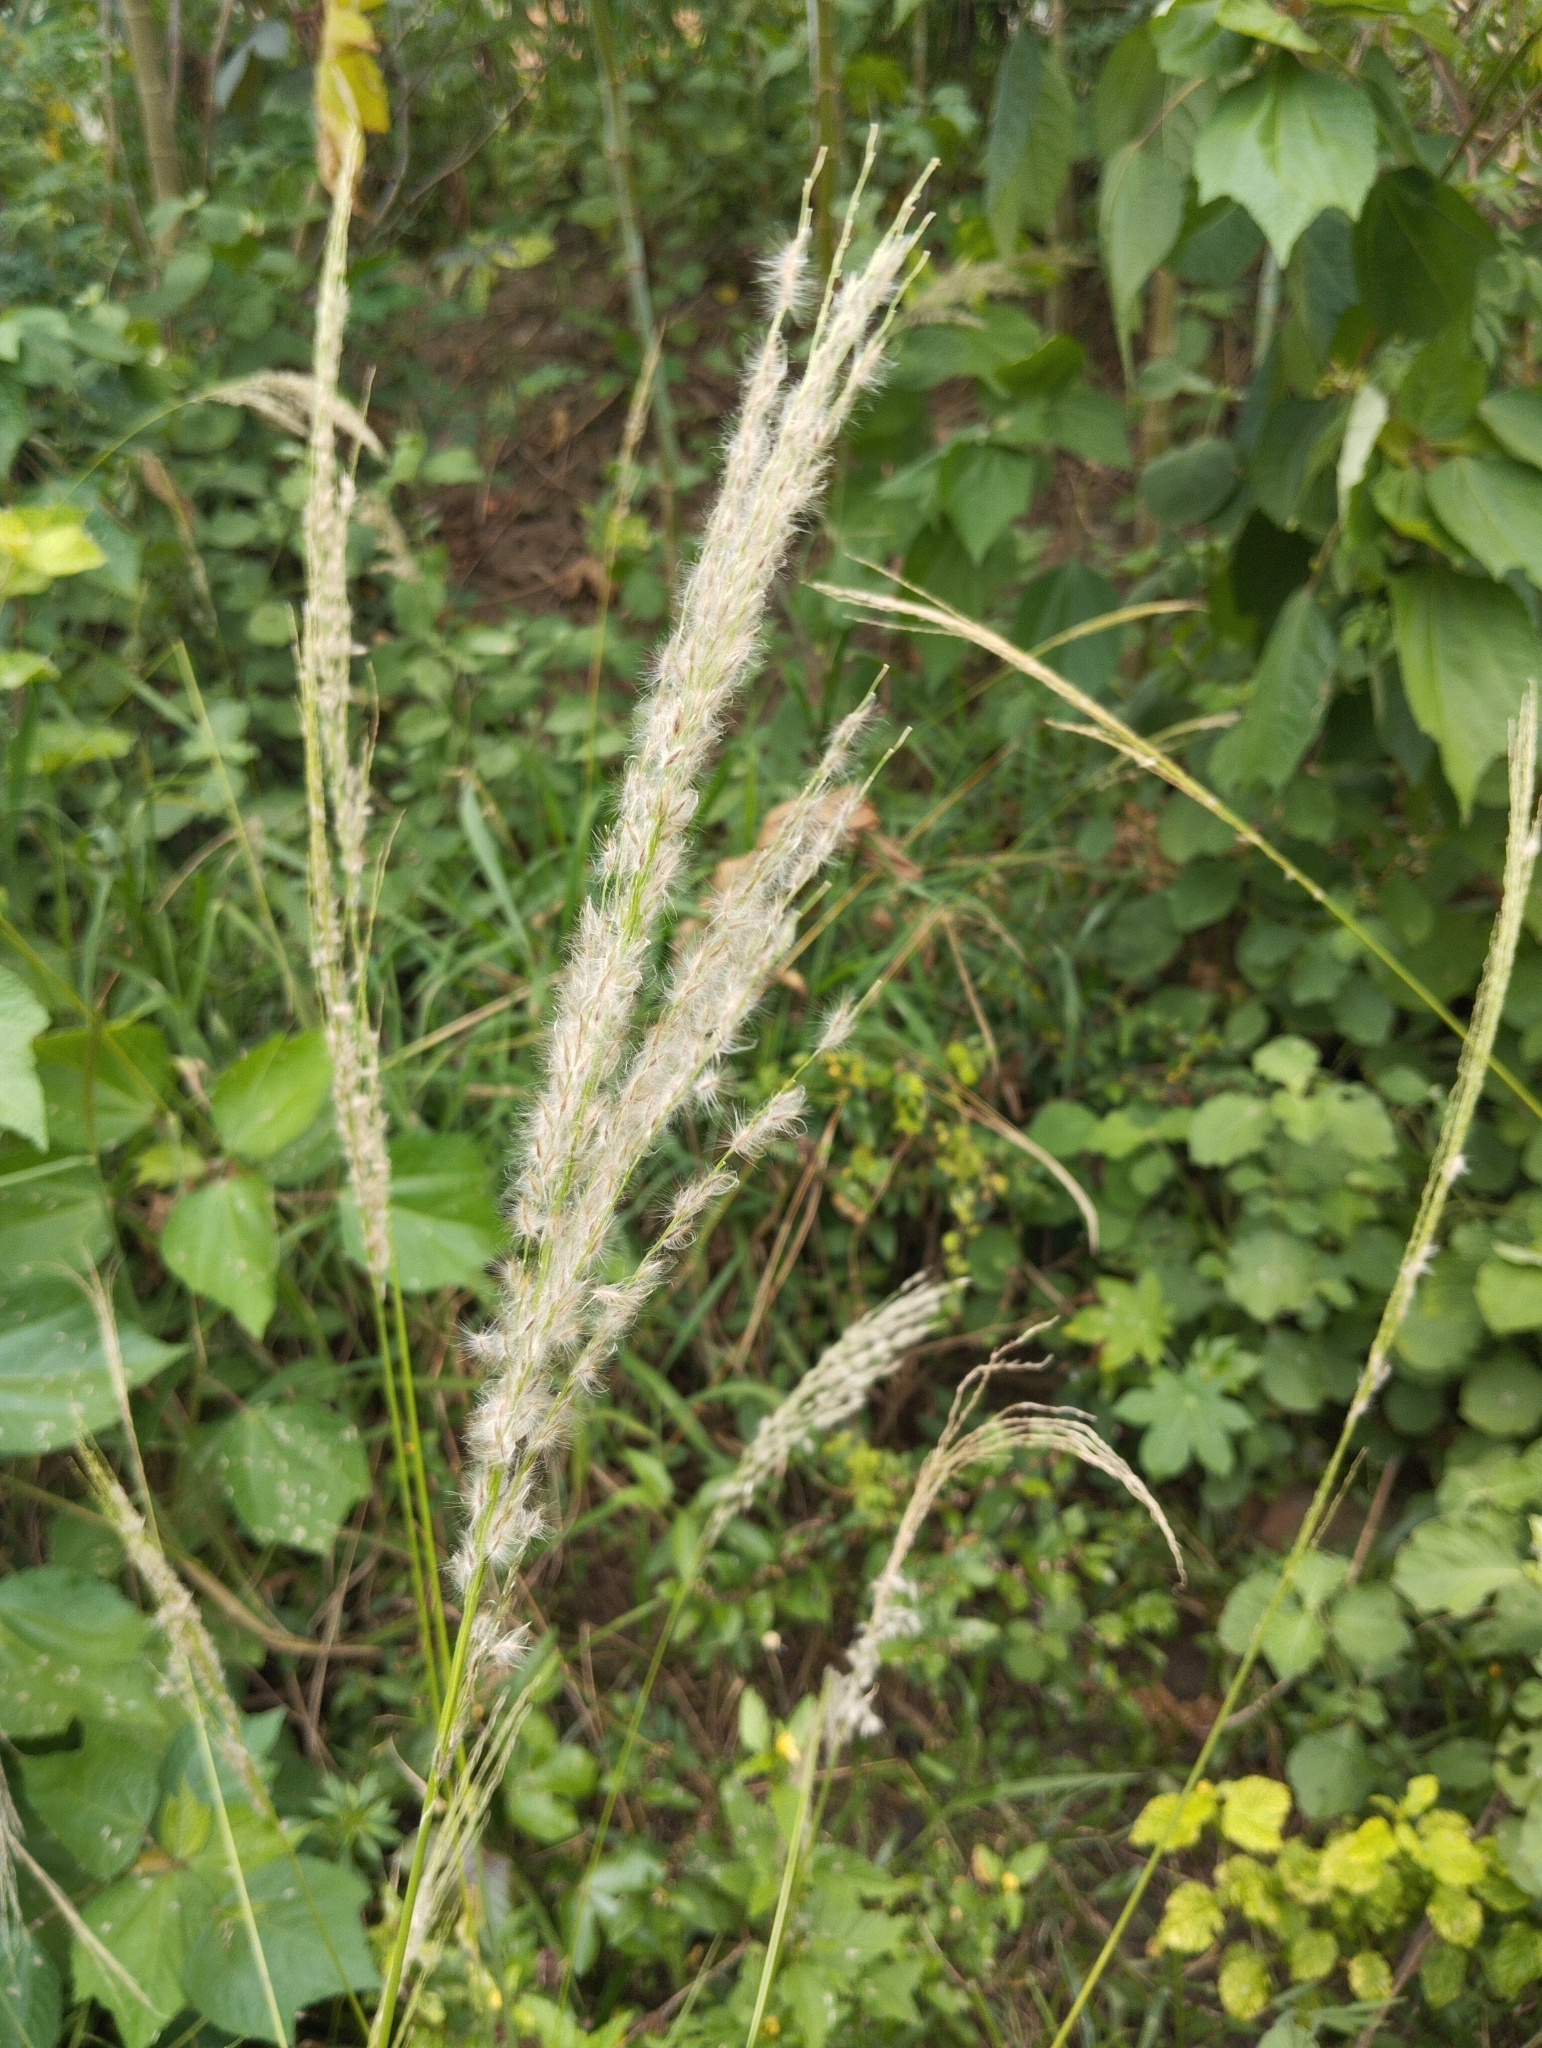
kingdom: Plantae
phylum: Tracheophyta
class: Liliopsida
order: Poales
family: Poaceae
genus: Digitaria
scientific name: Digitaria insularis
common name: Sourgrass
